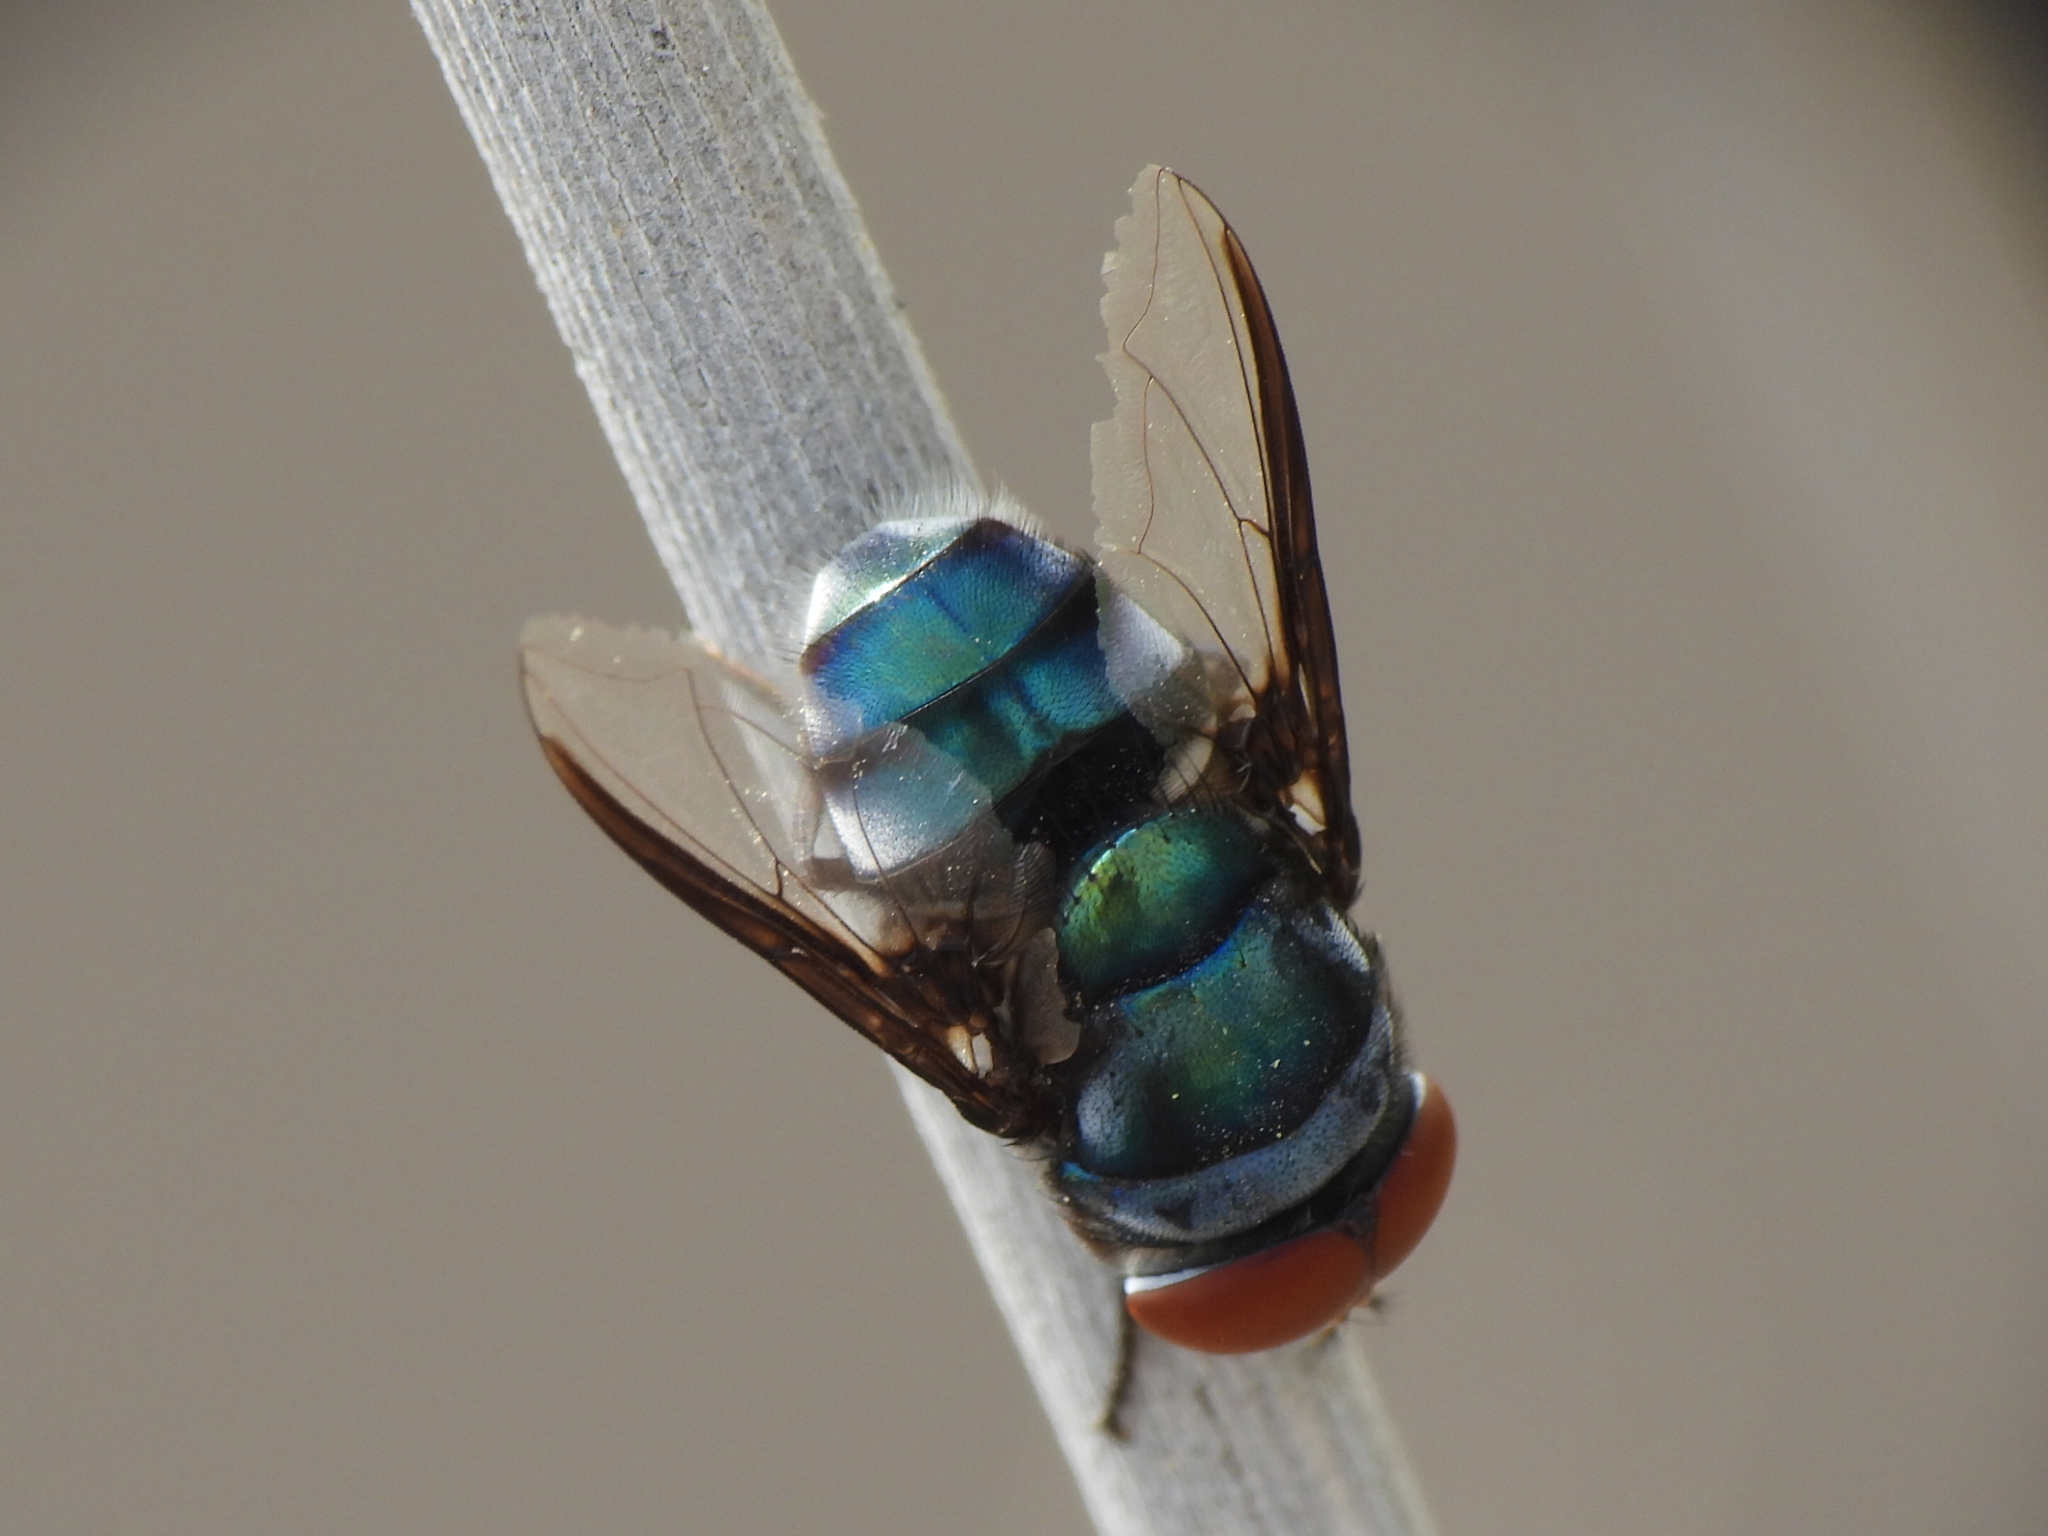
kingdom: Animalia
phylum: Arthropoda
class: Insecta
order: Diptera
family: Calliphoridae
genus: Chrysomya
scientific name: Chrysomya marginalis
